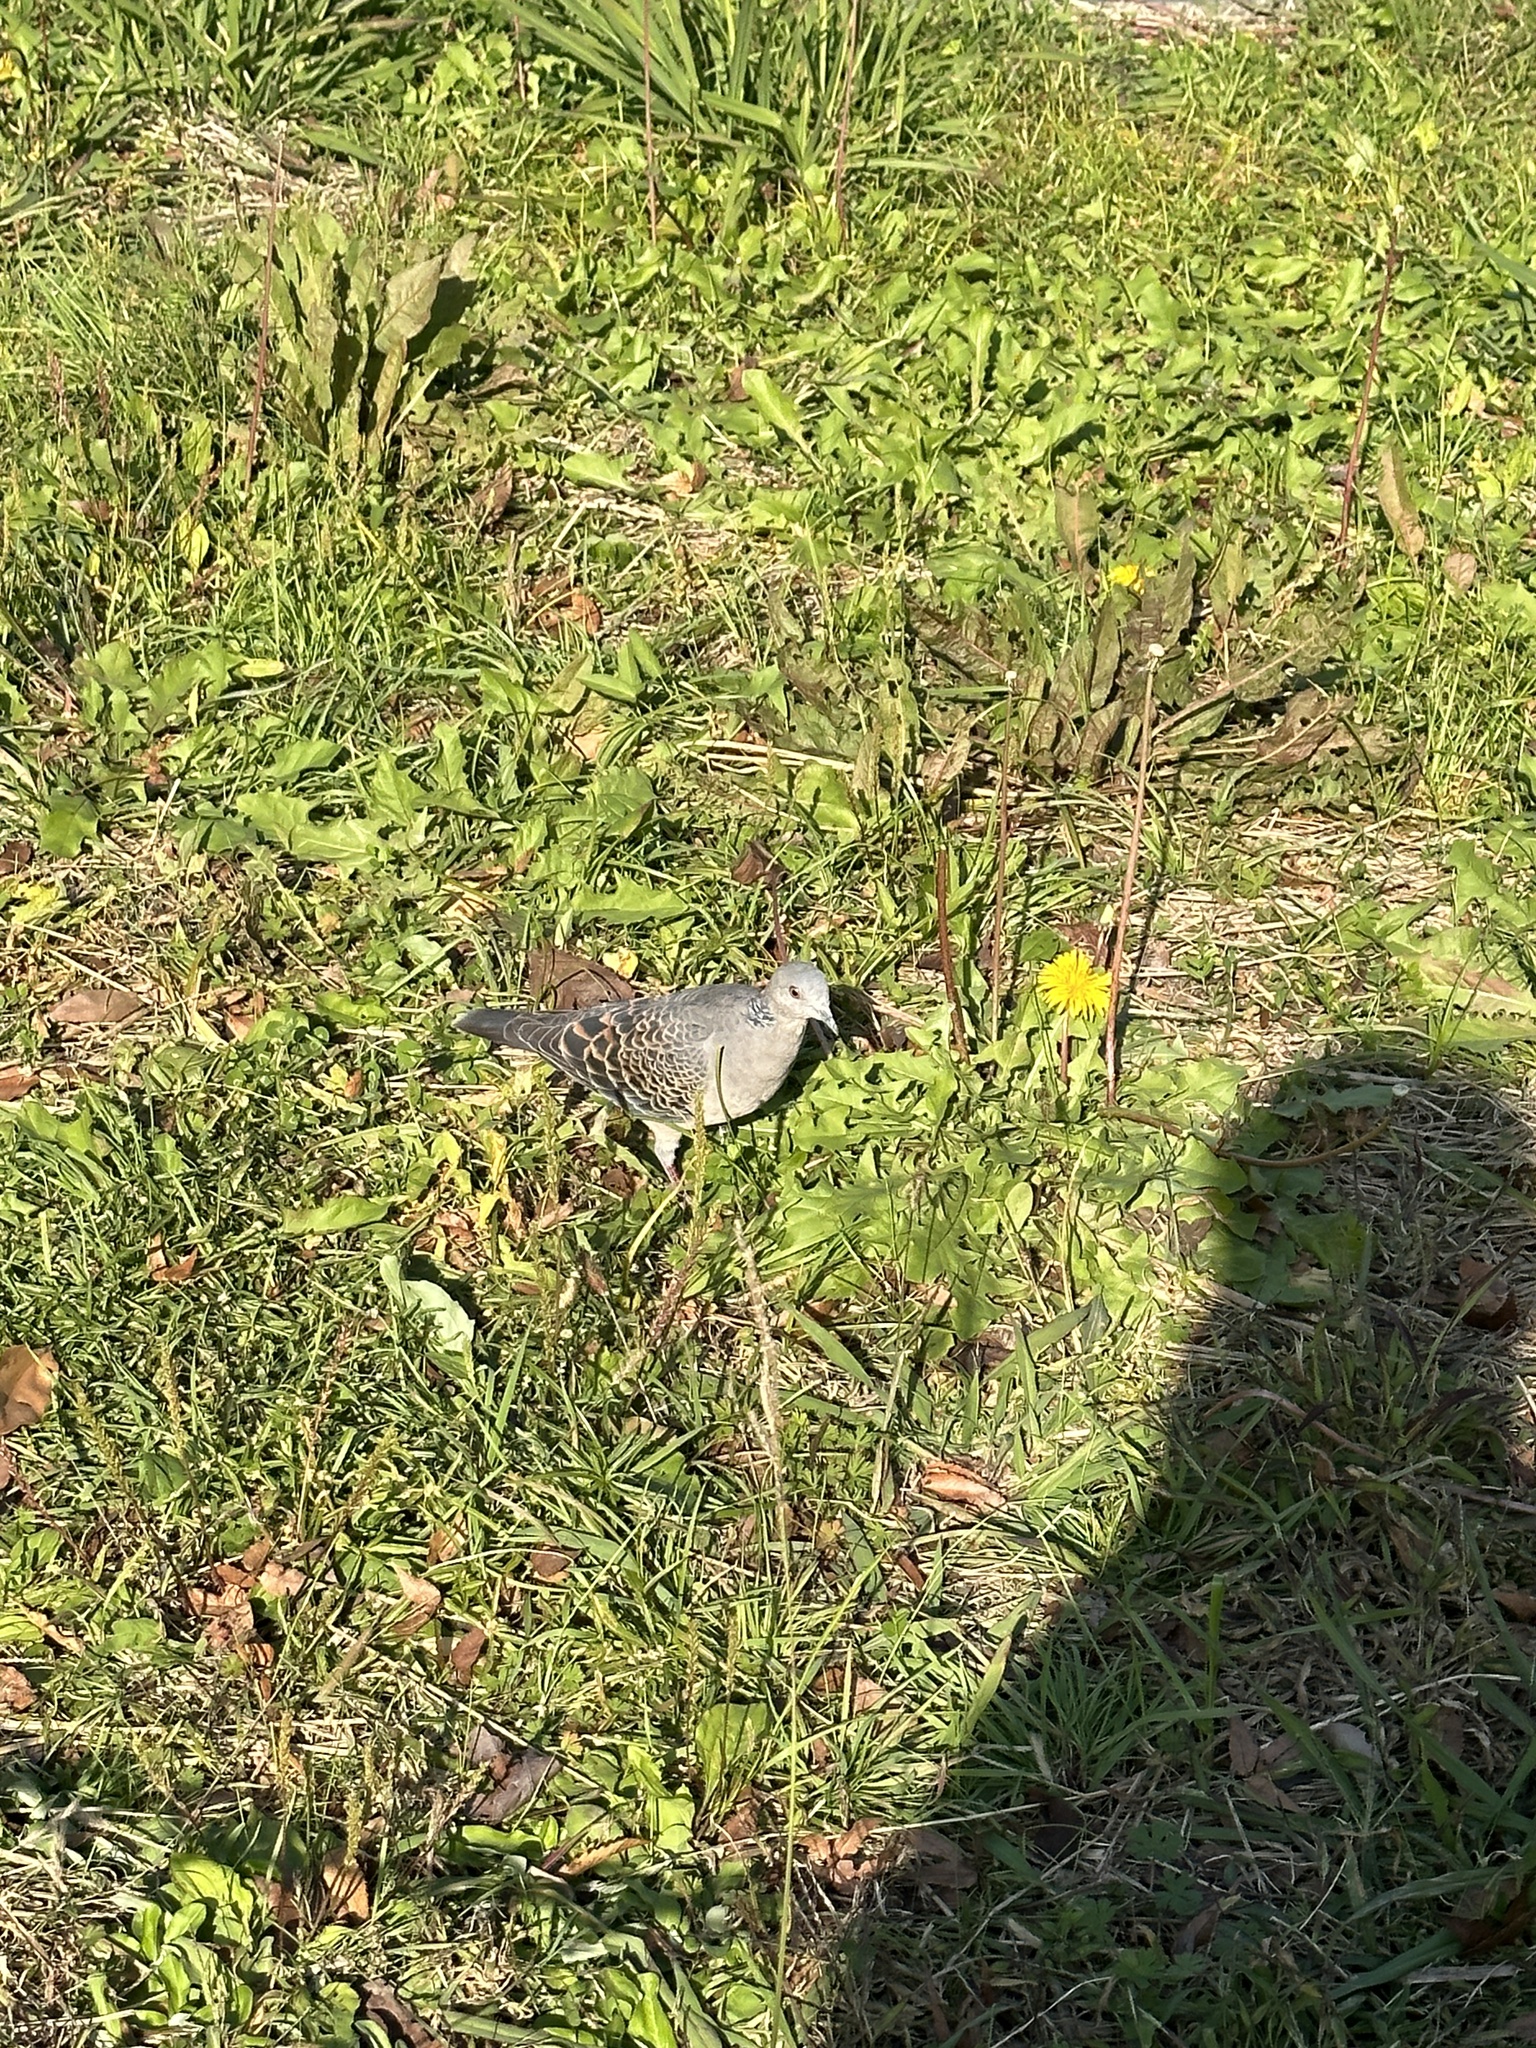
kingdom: Animalia
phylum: Chordata
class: Aves
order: Columbiformes
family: Columbidae
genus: Streptopelia
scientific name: Streptopelia orientalis
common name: Oriental turtle dove
